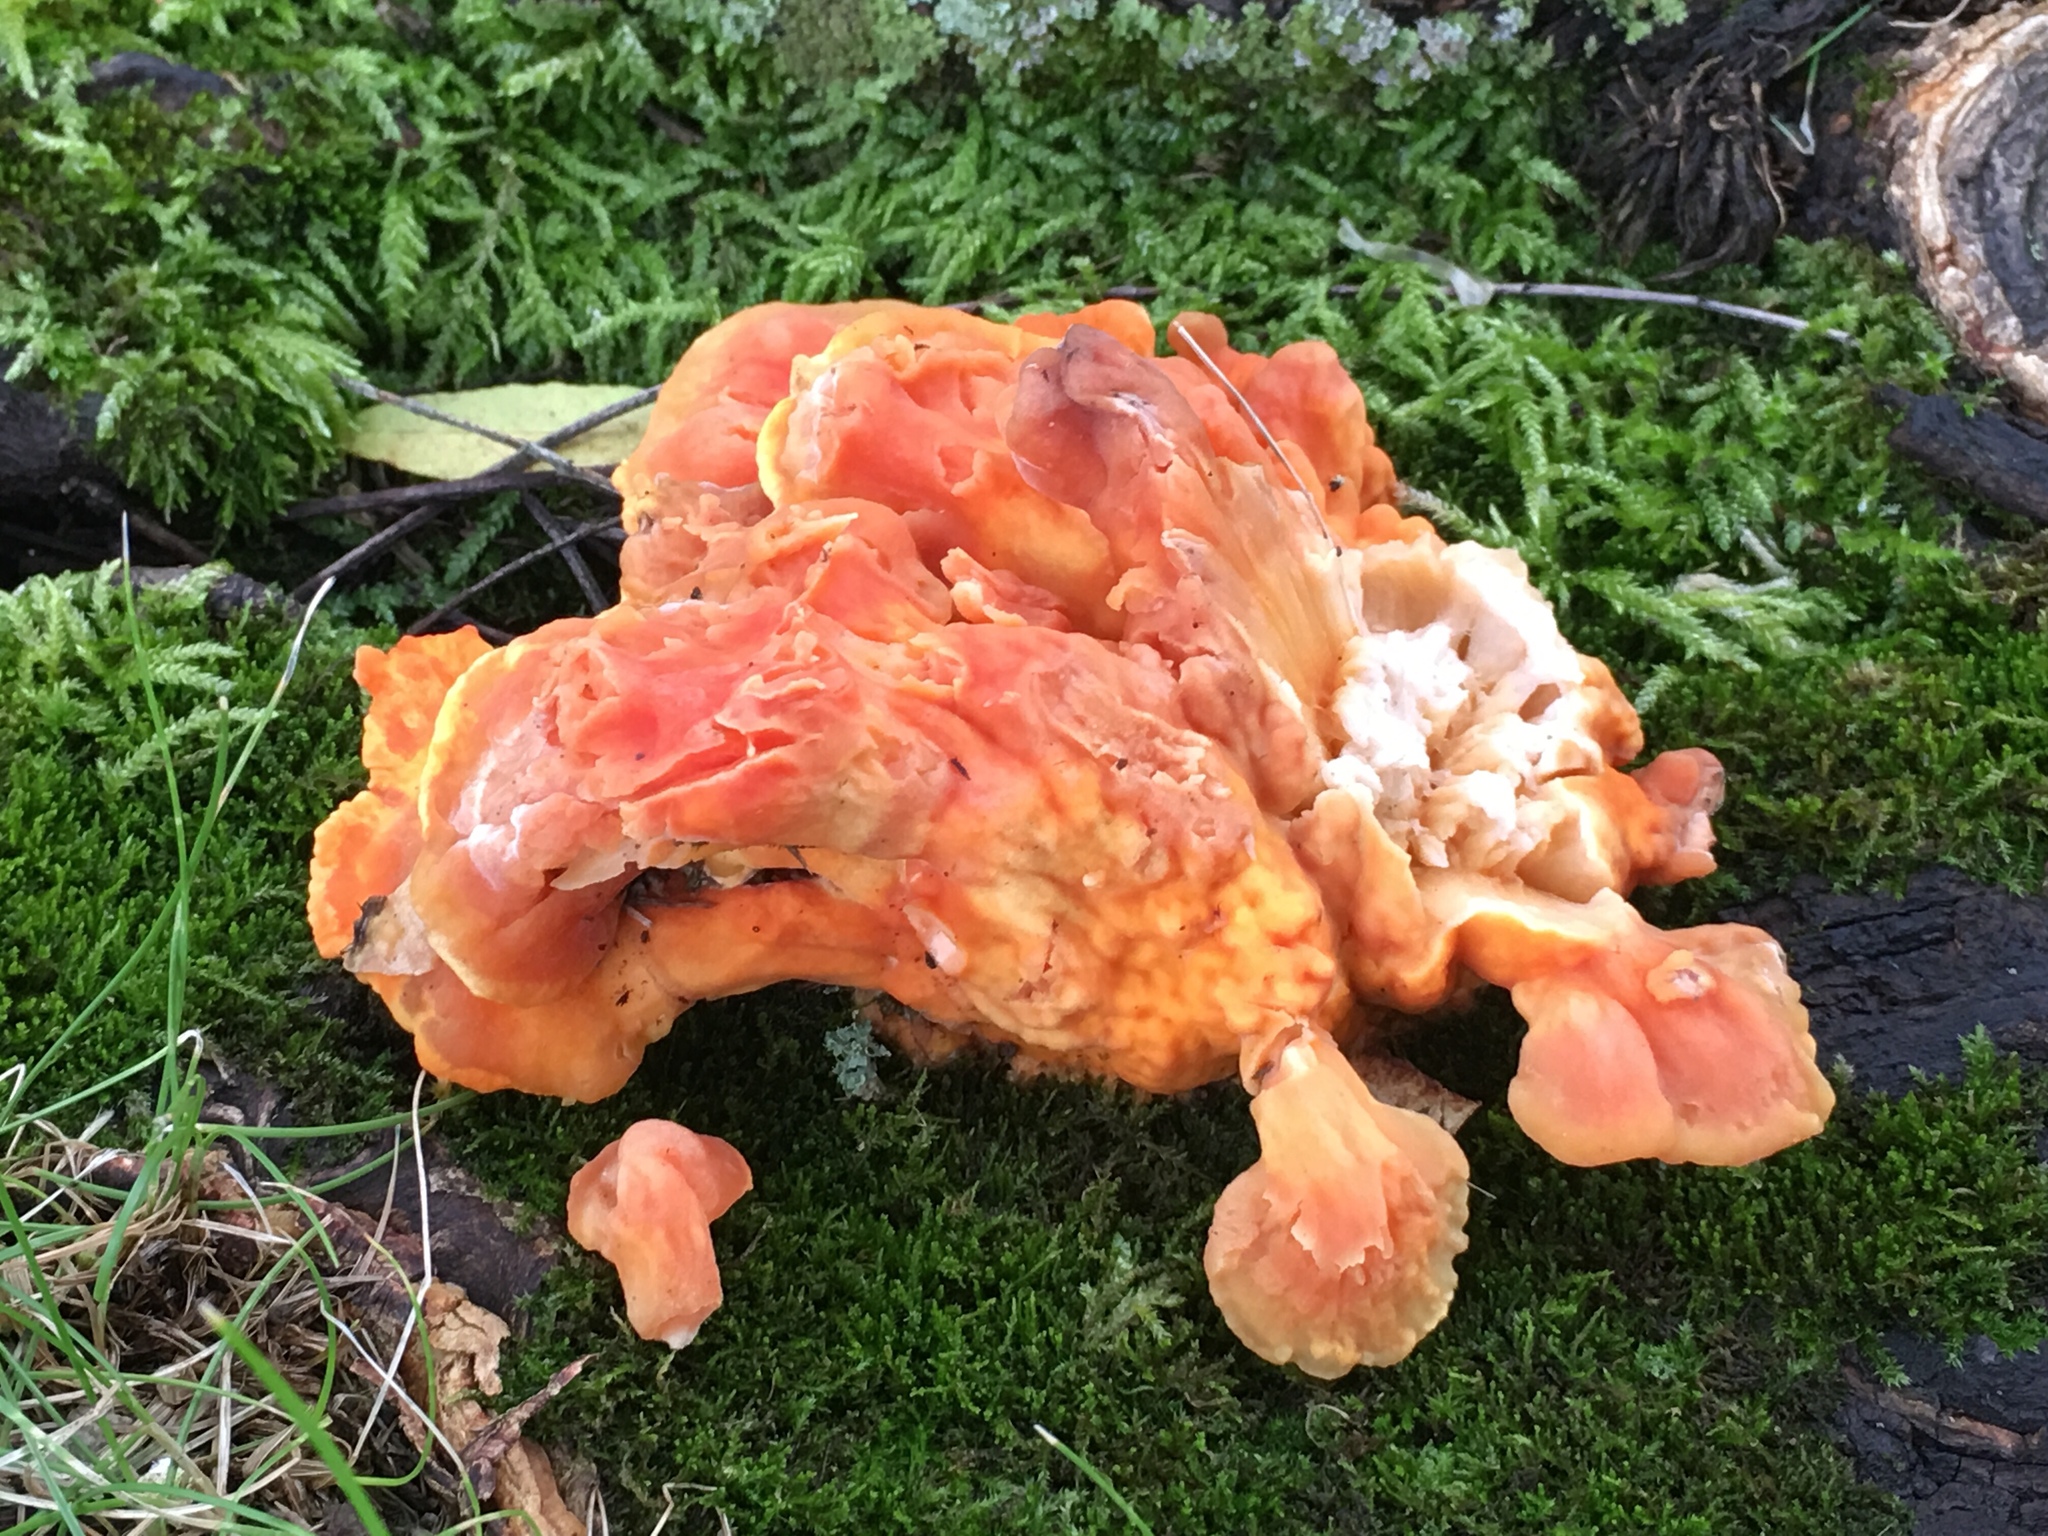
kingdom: Fungi
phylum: Basidiomycota
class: Agaricomycetes
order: Polyporales
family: Laetiporaceae
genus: Laetiporus
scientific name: Laetiporus sulphureus
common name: Chicken of the woods
